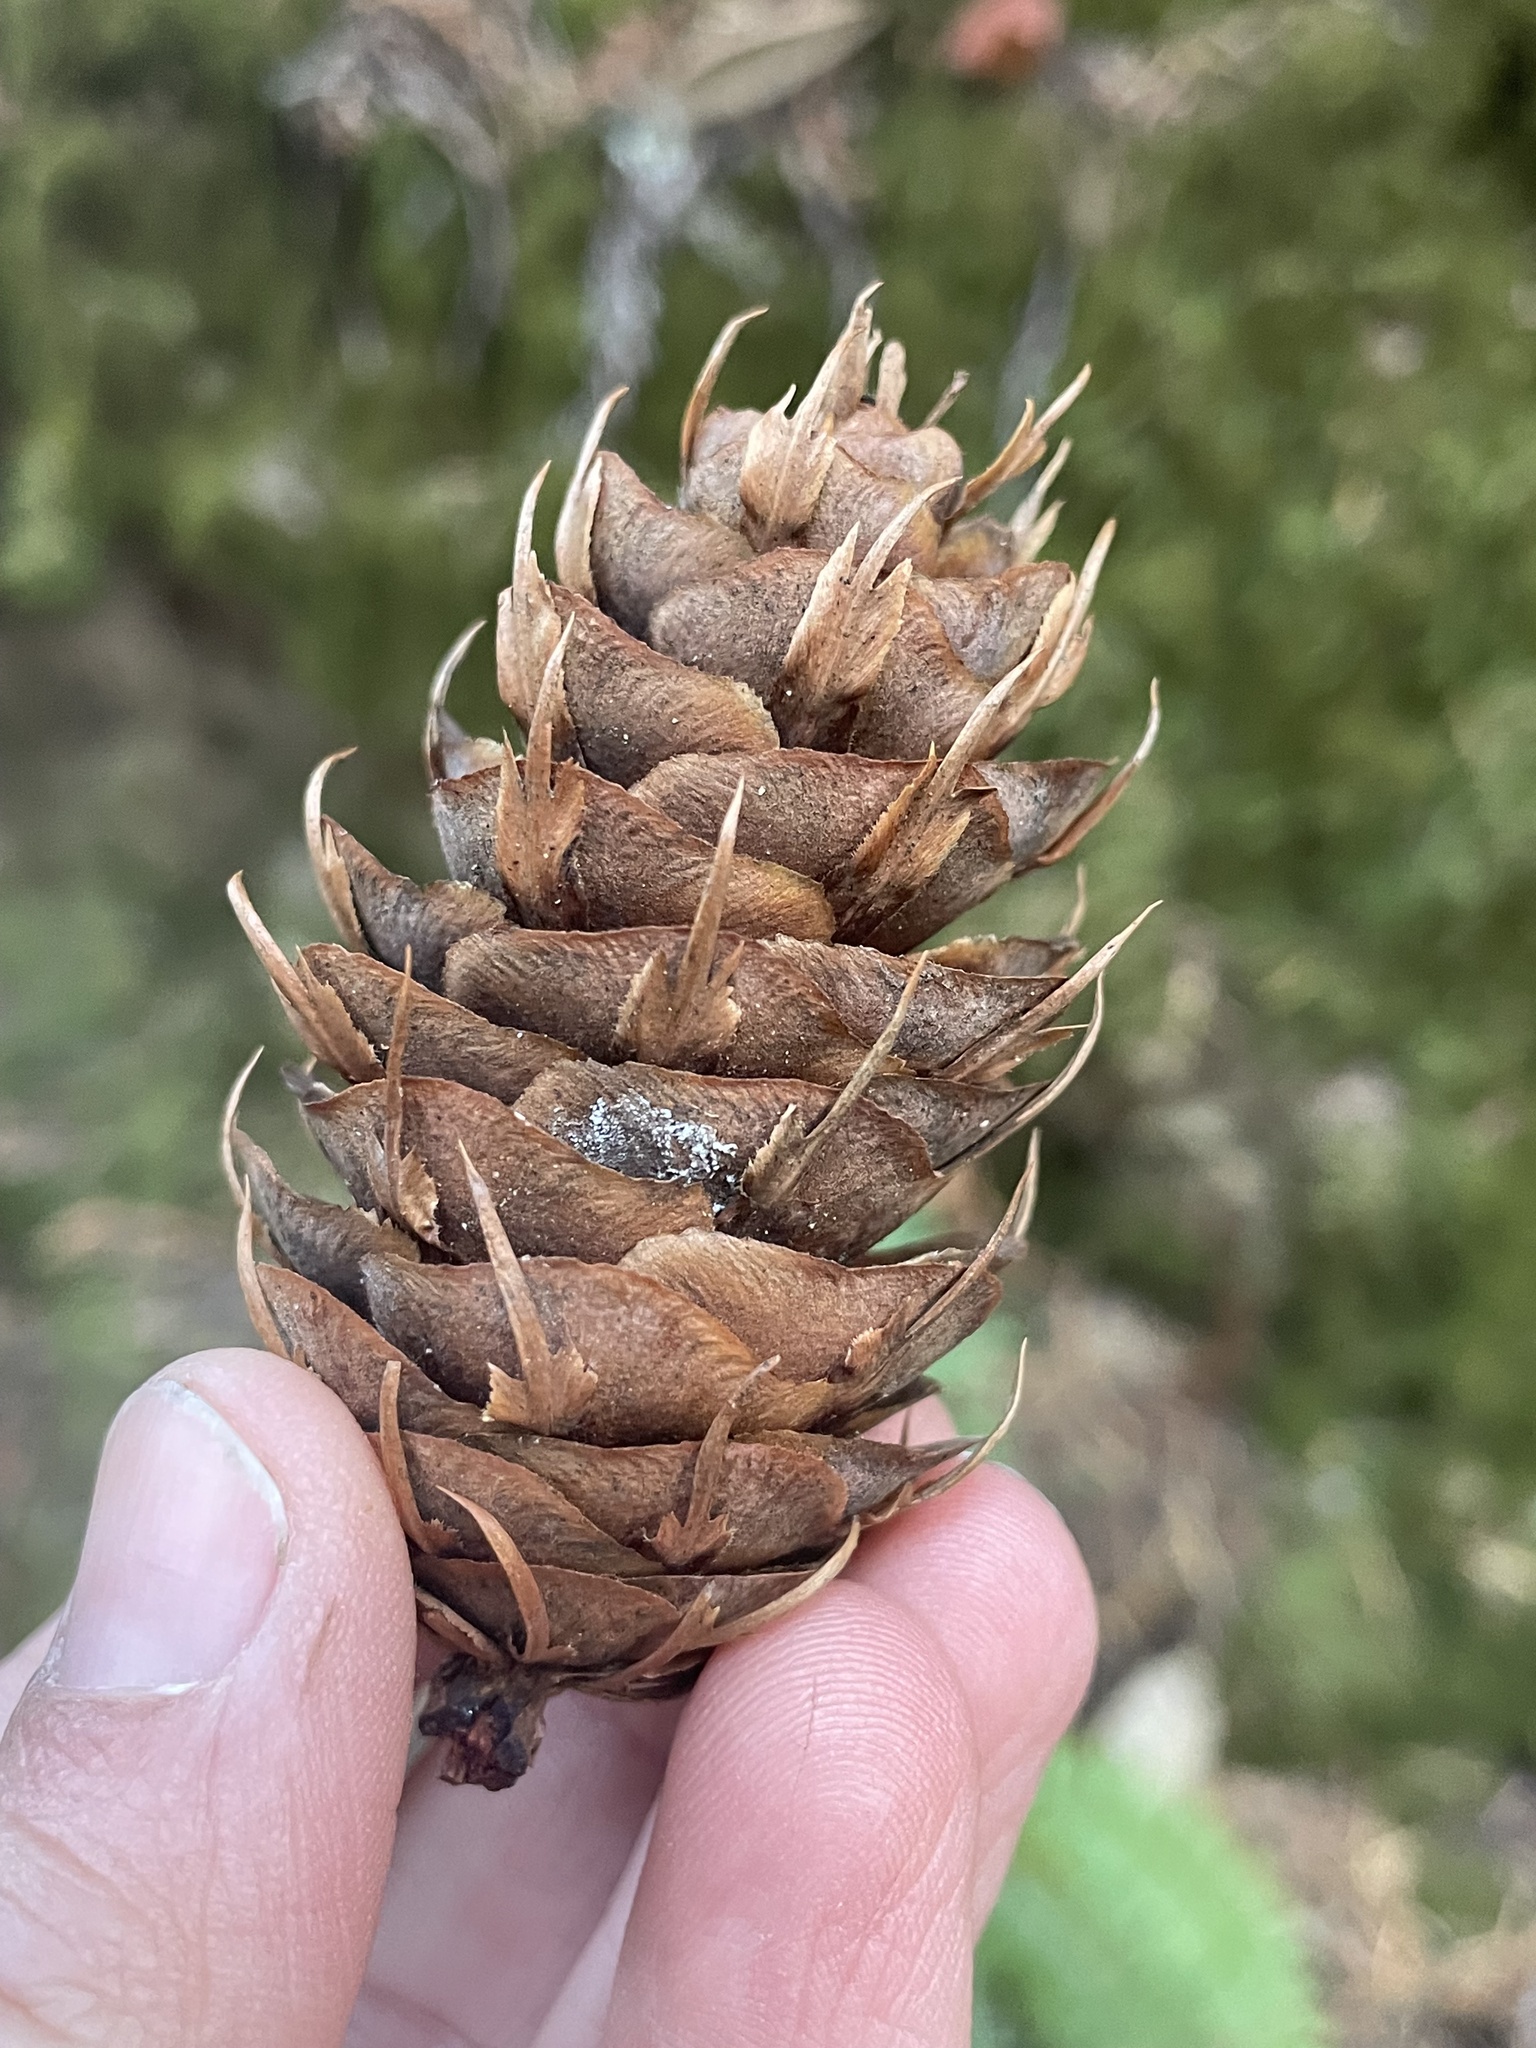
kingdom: Plantae
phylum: Tracheophyta
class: Pinopsida
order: Pinales
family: Pinaceae
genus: Pseudotsuga
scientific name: Pseudotsuga menziesii
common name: Douglas fir
